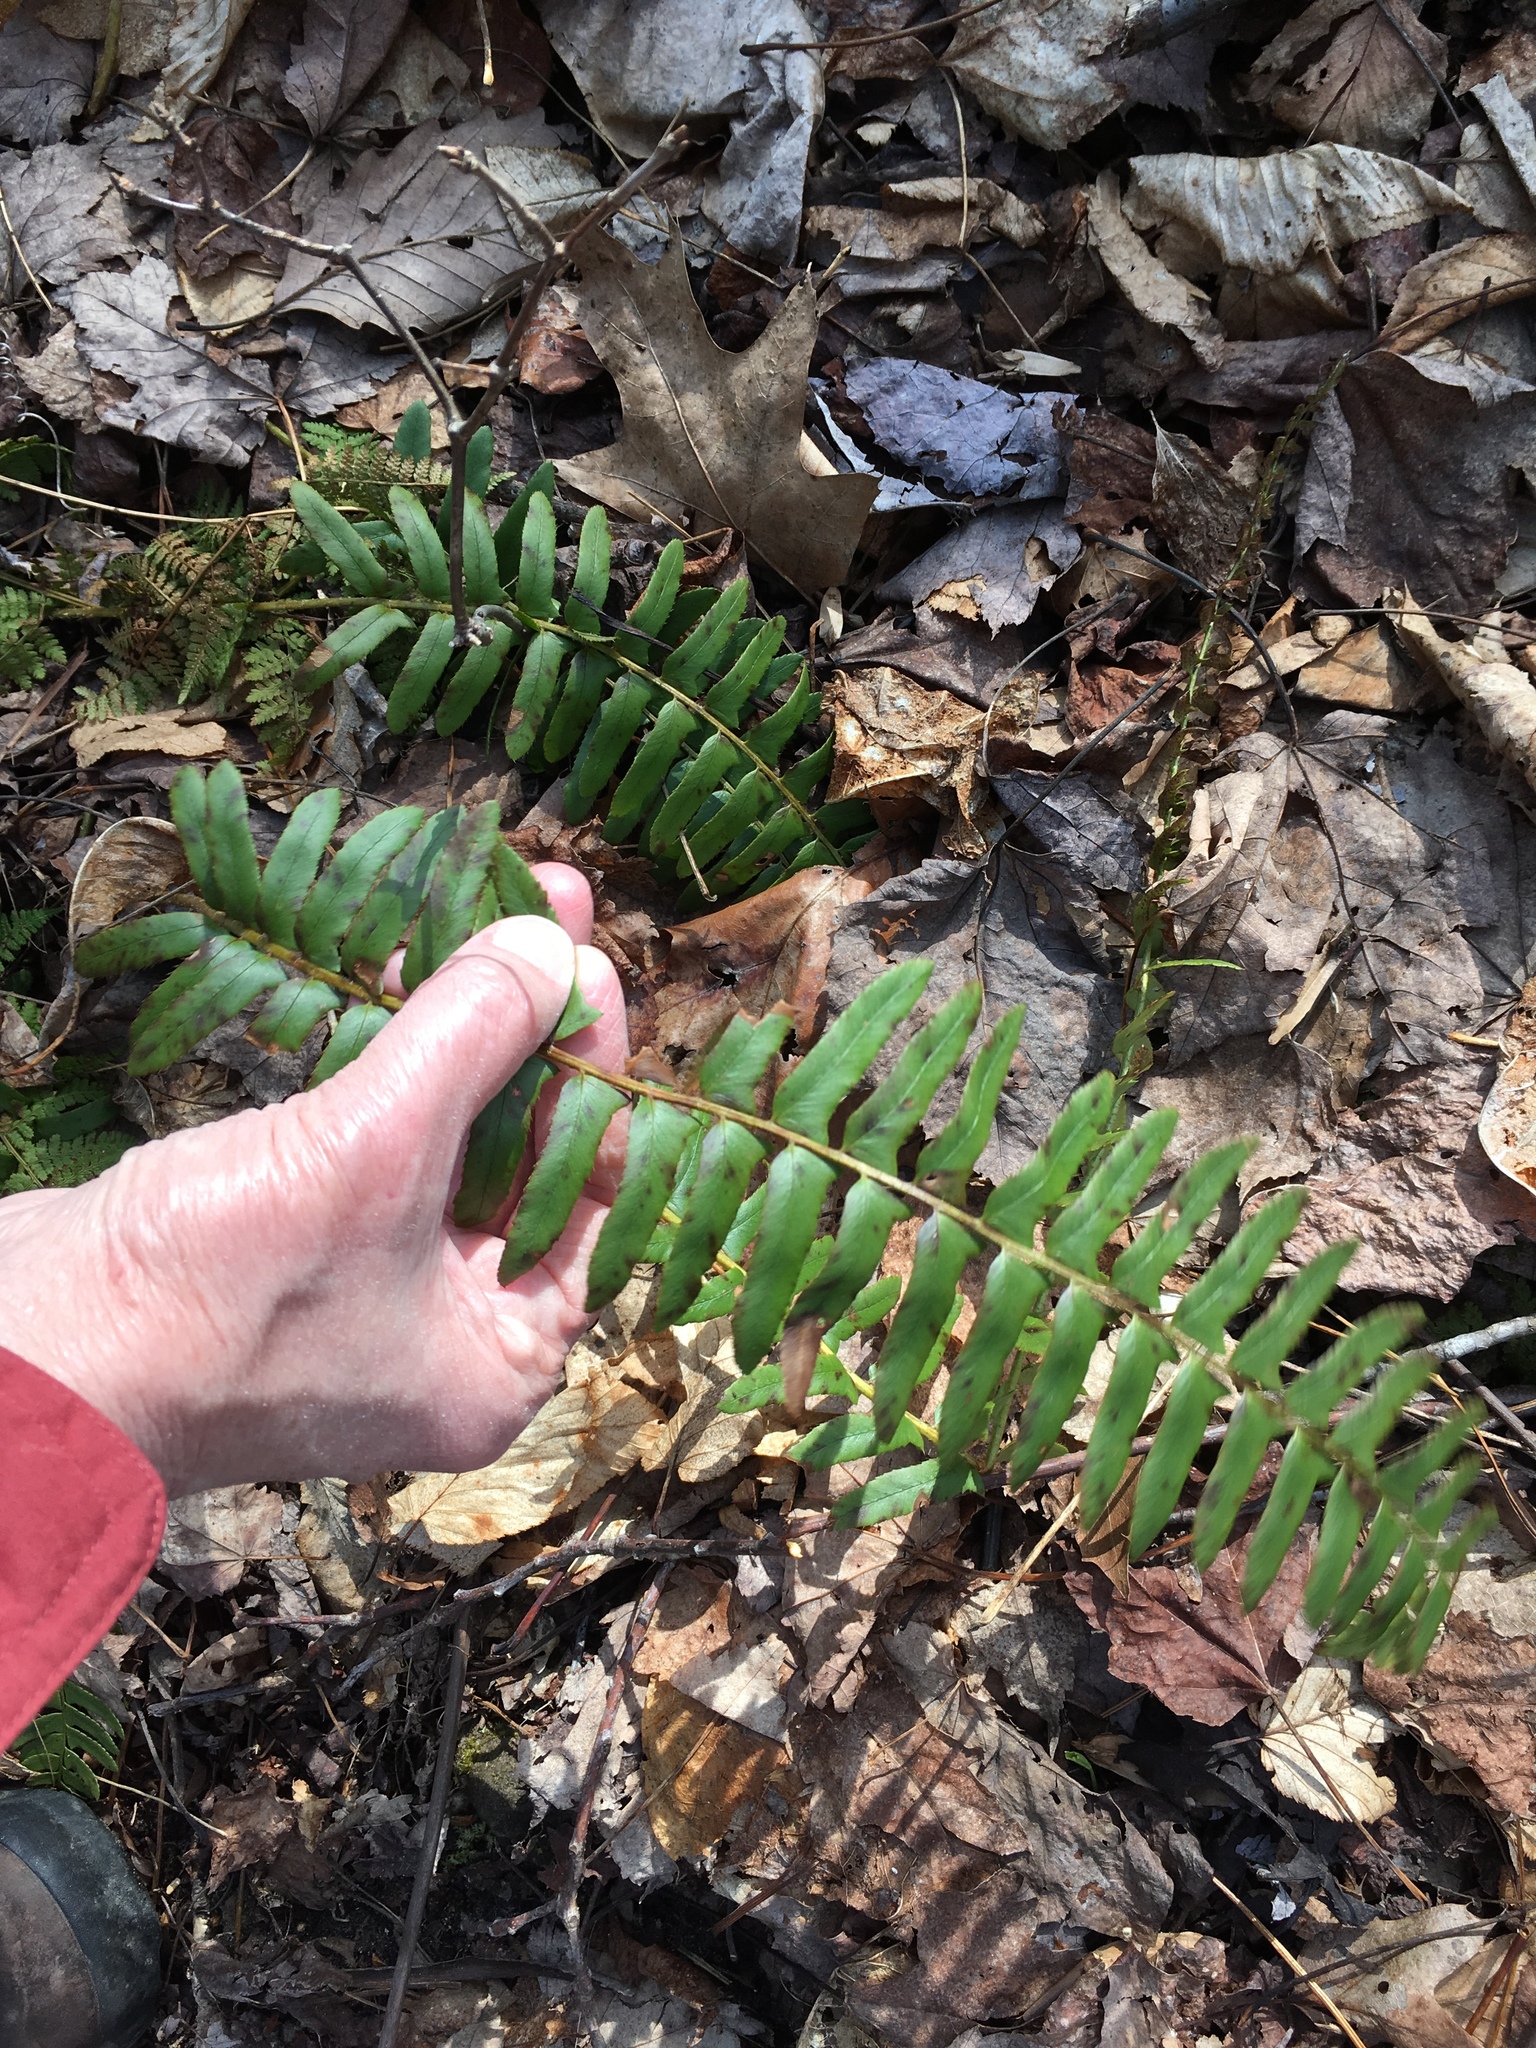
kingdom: Plantae
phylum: Tracheophyta
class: Polypodiopsida
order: Polypodiales
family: Dryopteridaceae
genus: Polystichum
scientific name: Polystichum acrostichoides
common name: Christmas fern
